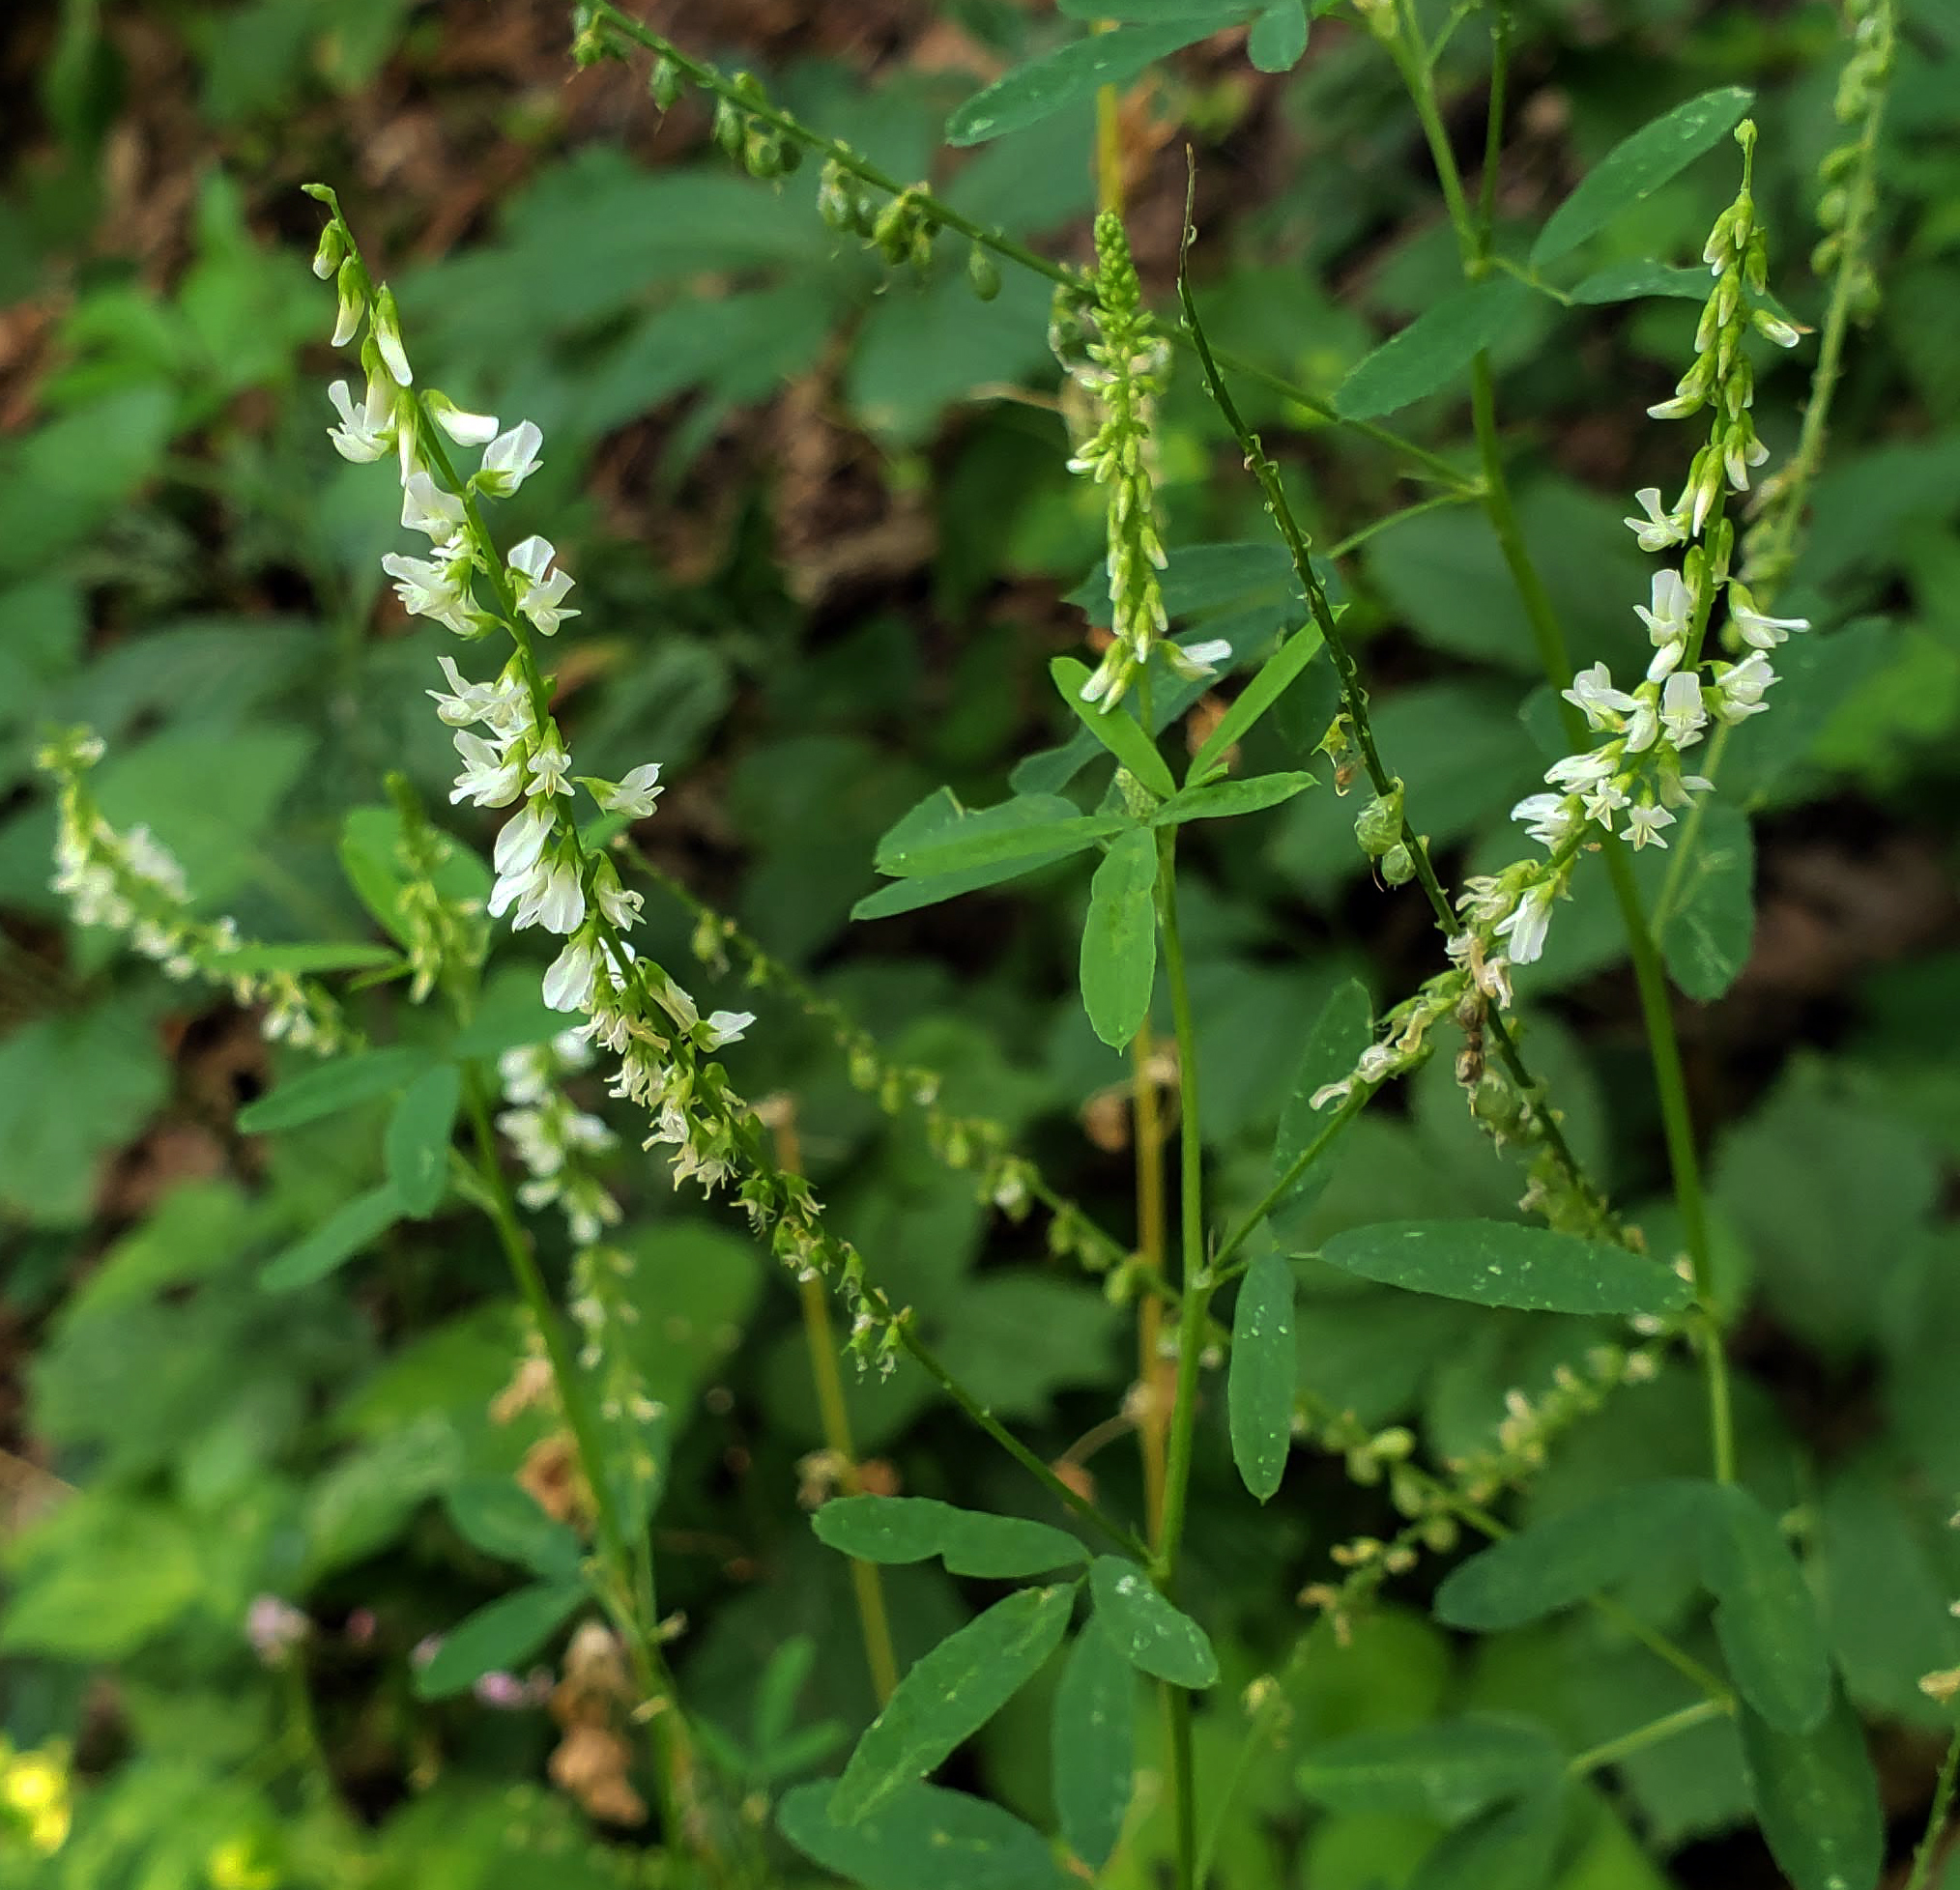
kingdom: Plantae
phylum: Tracheophyta
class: Magnoliopsida
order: Fabales
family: Fabaceae
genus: Melilotus
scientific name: Melilotus albus
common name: White melilot
